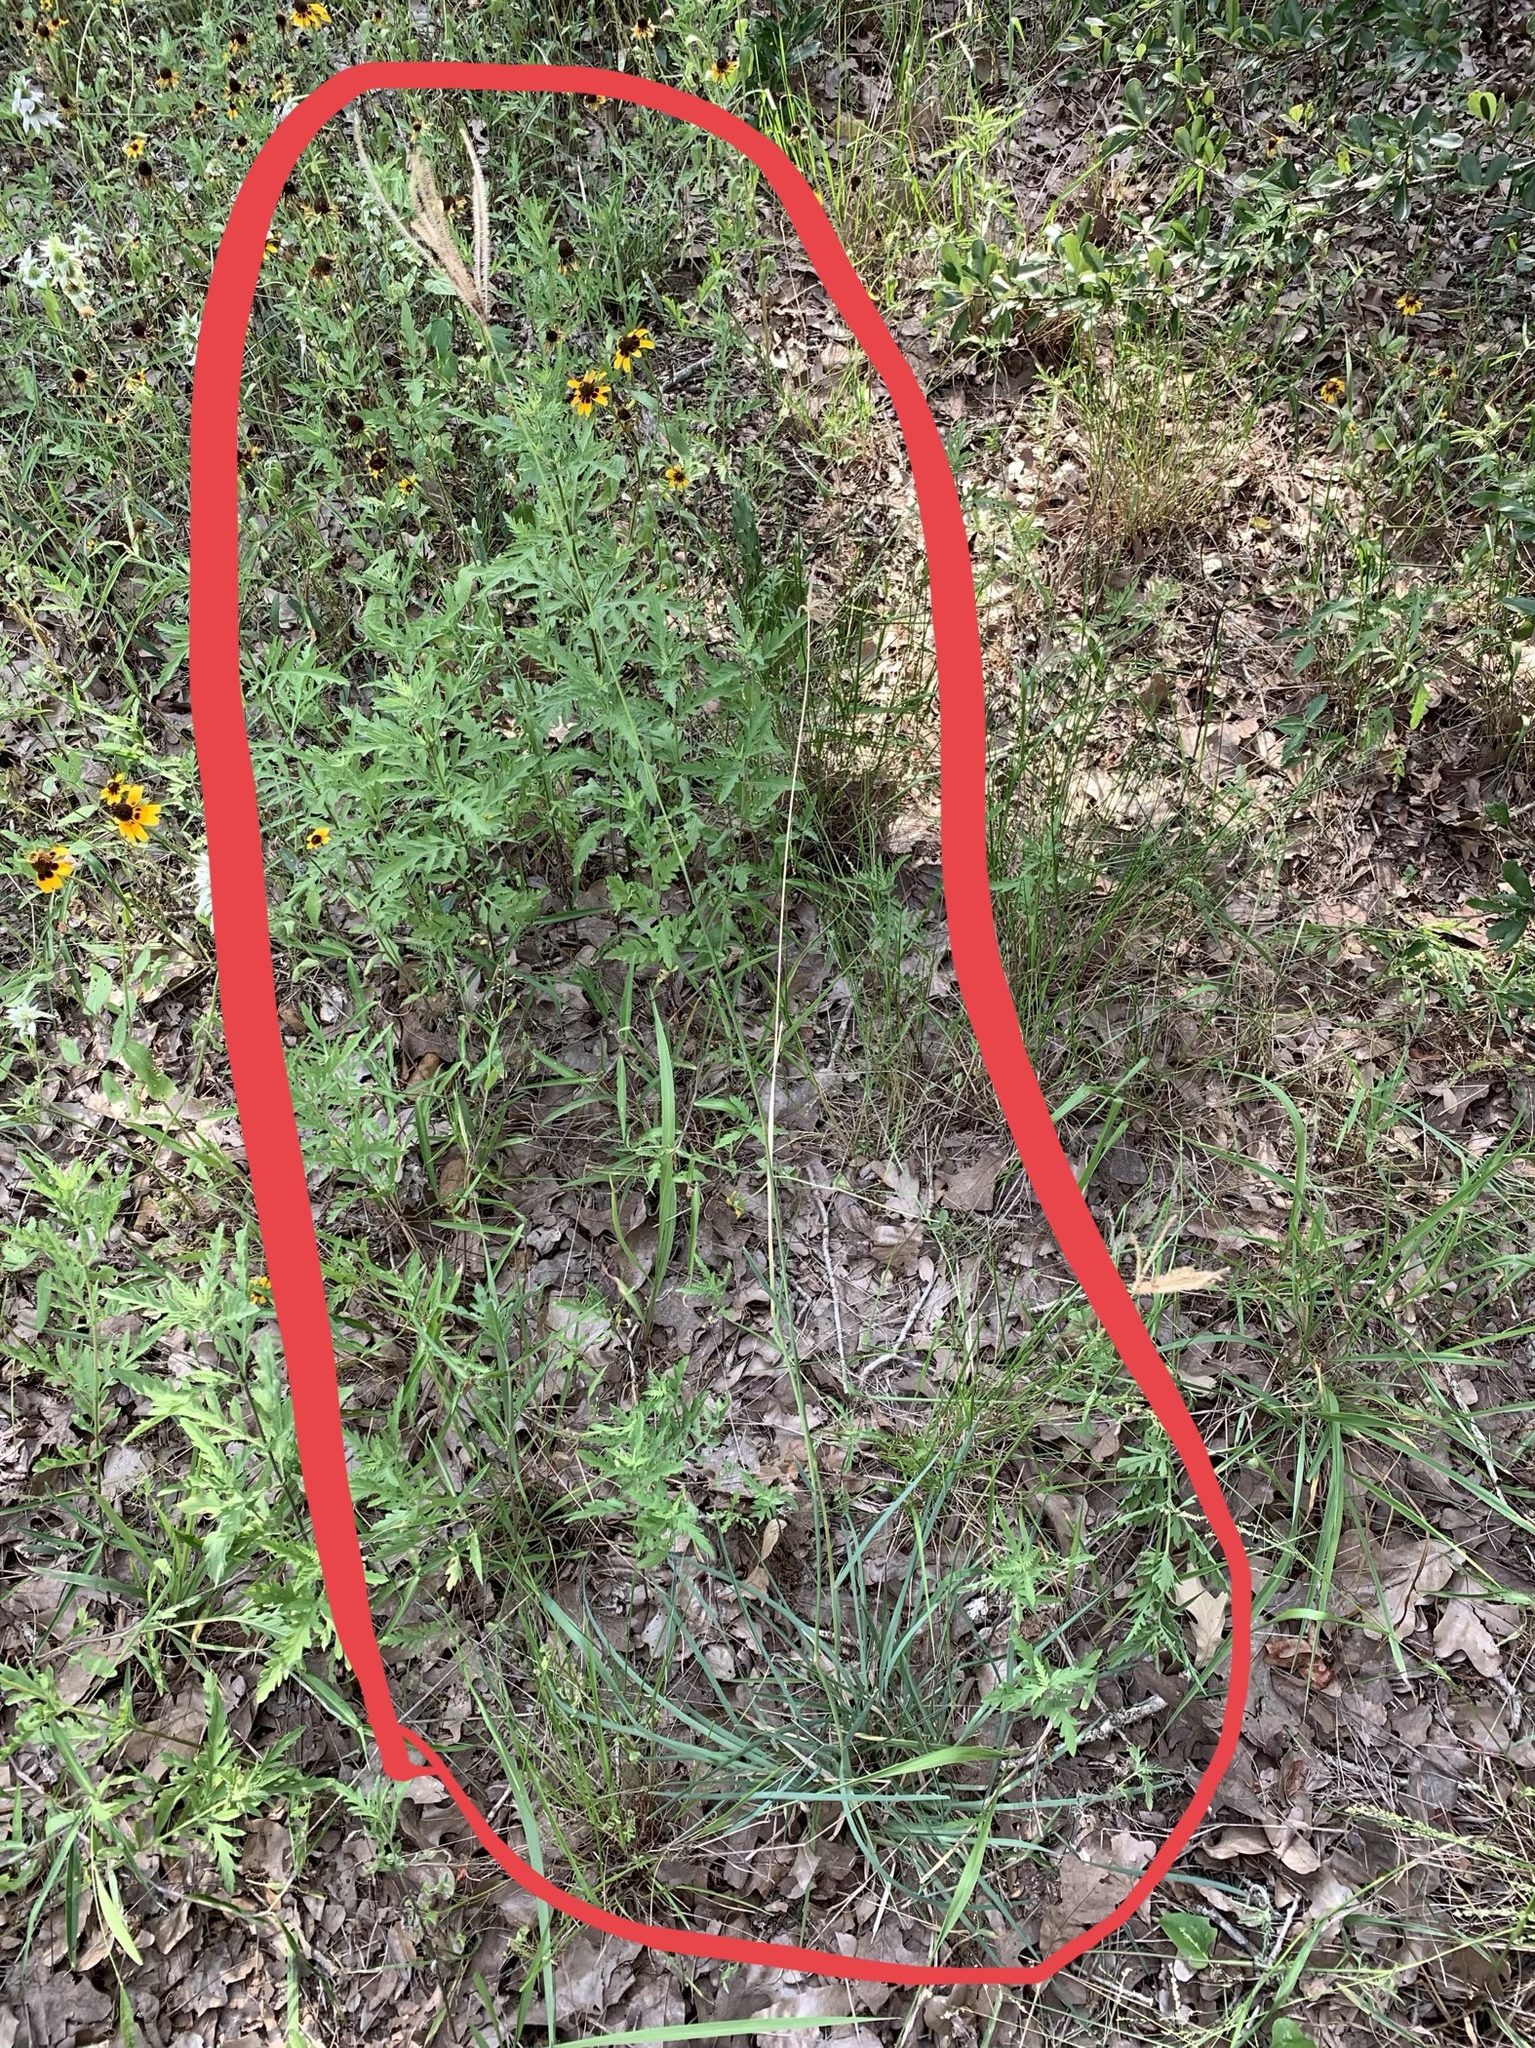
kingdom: Plantae
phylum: Tracheophyta
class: Liliopsida
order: Poales
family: Poaceae
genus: Chloris
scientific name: Chloris cucullata
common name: Hooded windmill grass
